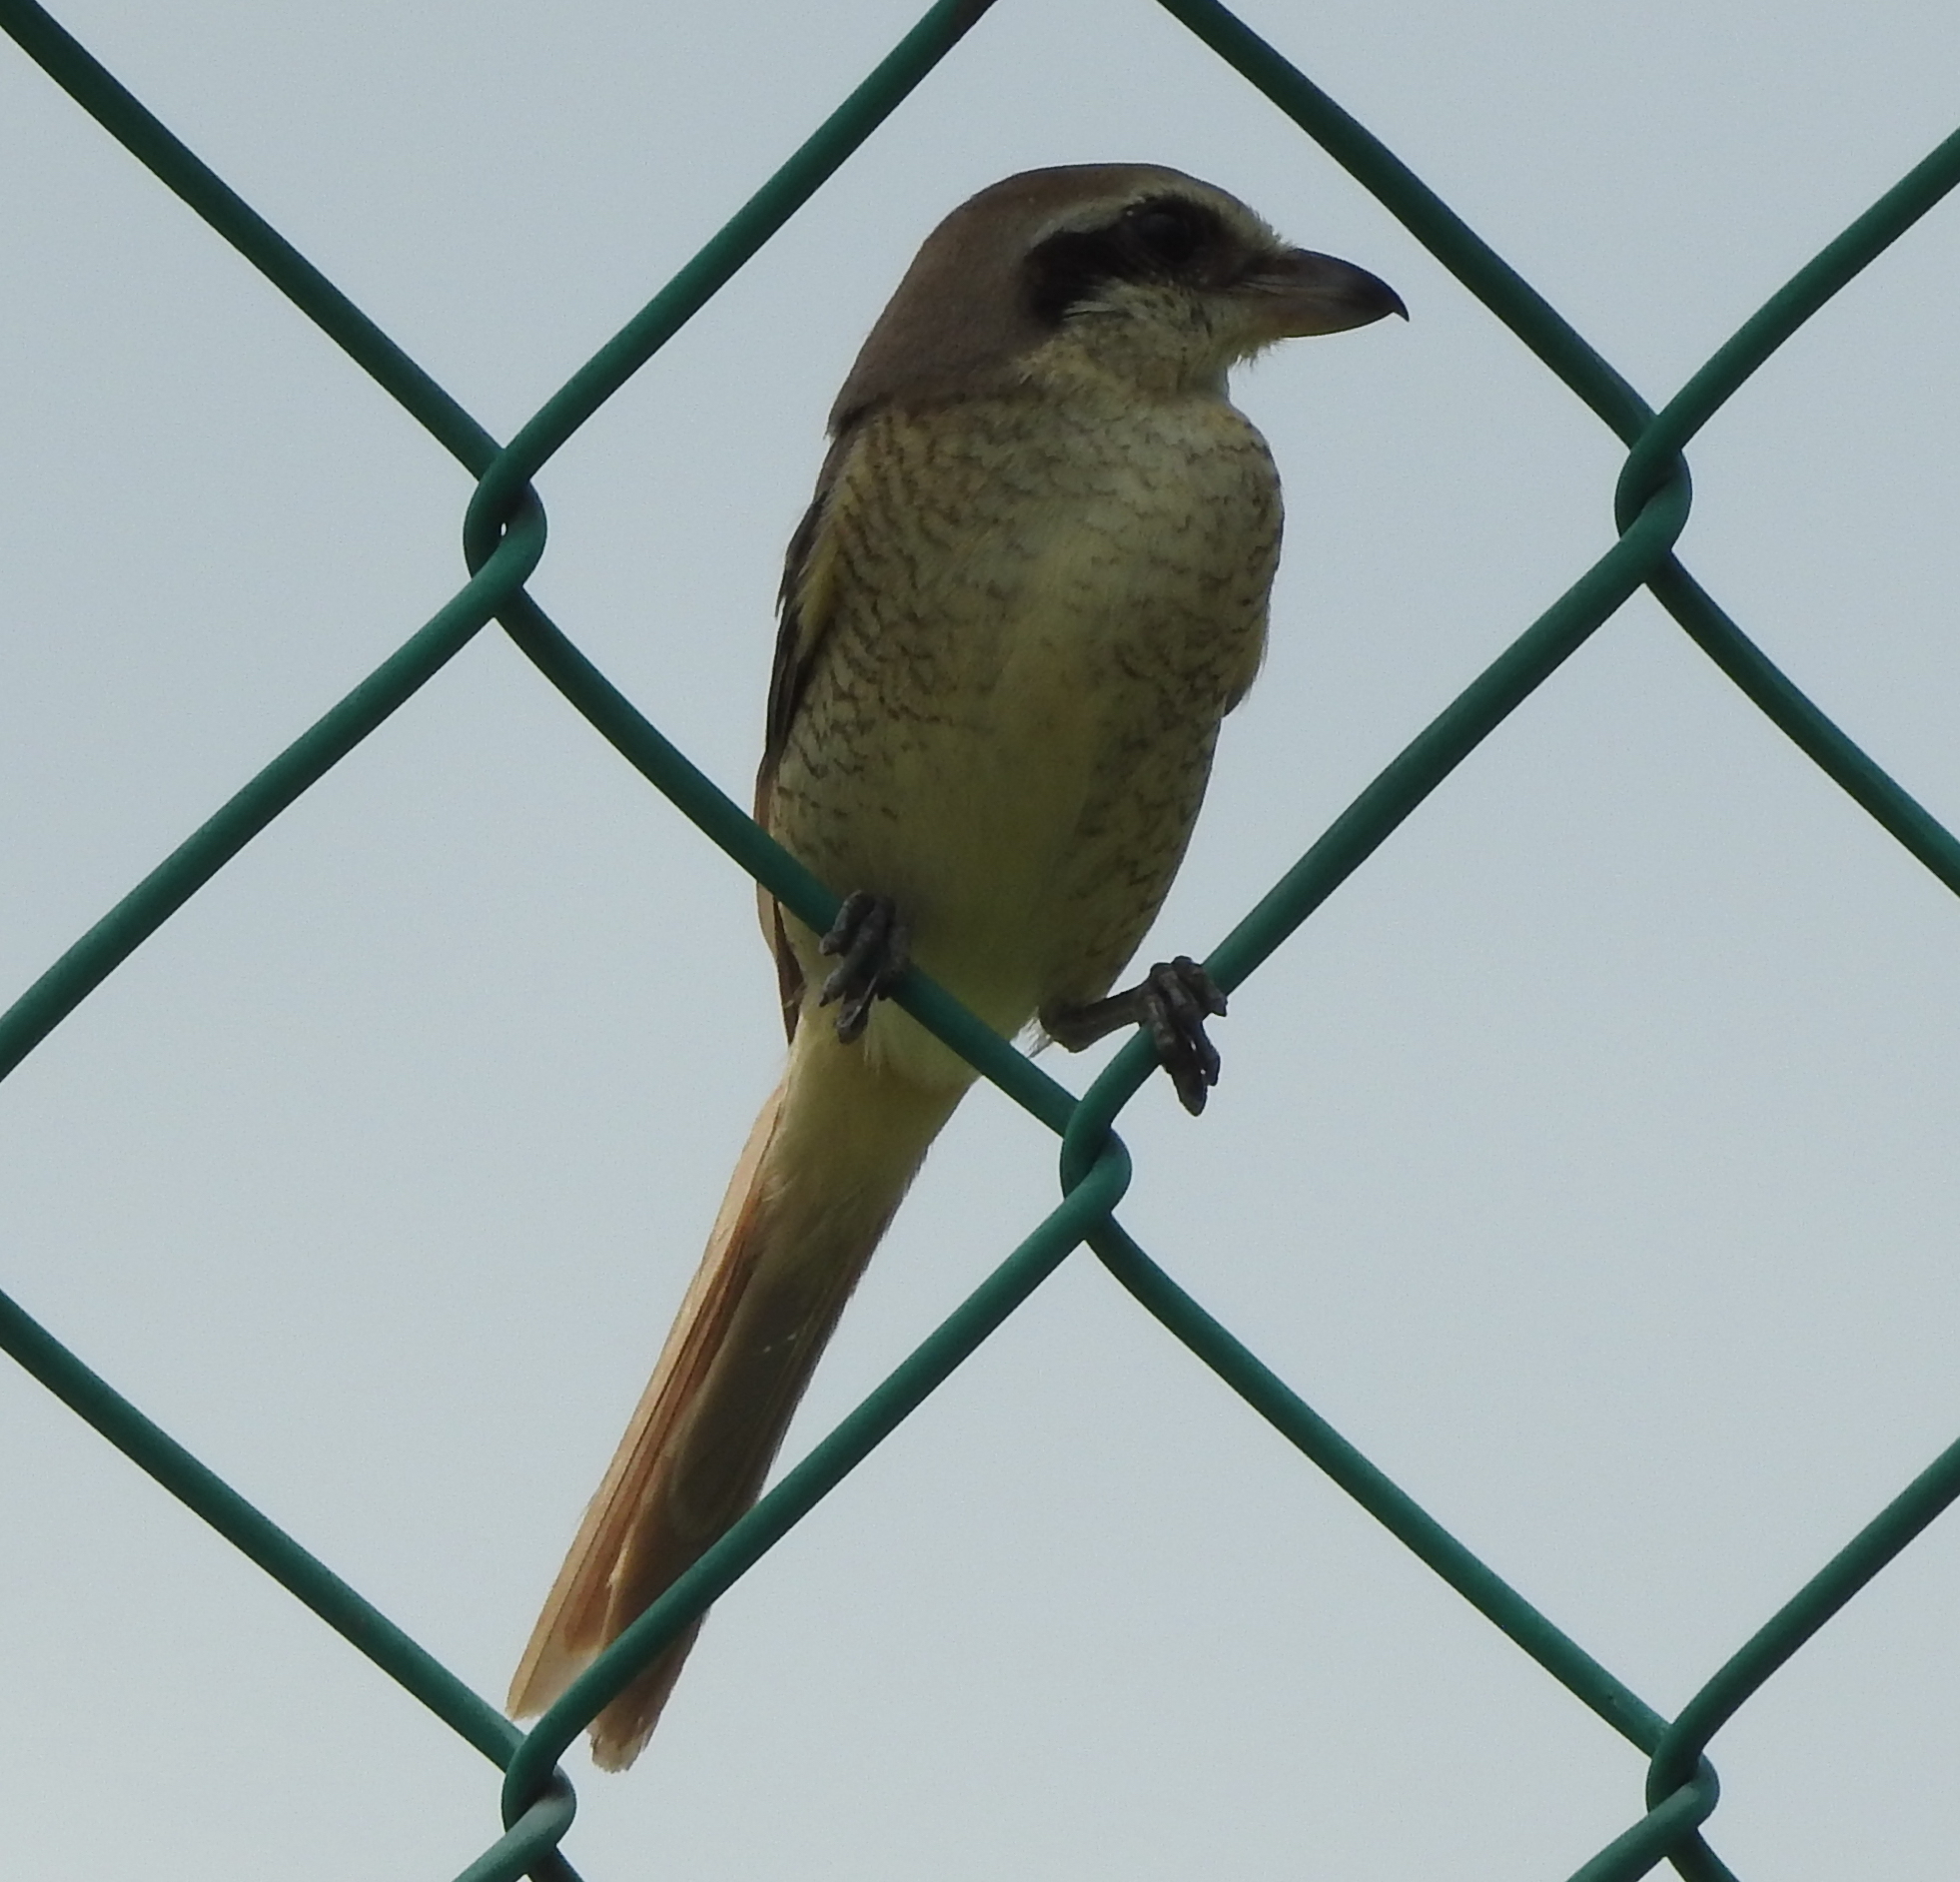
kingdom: Animalia
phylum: Chordata
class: Aves
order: Passeriformes
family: Laniidae
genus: Lanius
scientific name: Lanius cristatus
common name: Brown shrike
